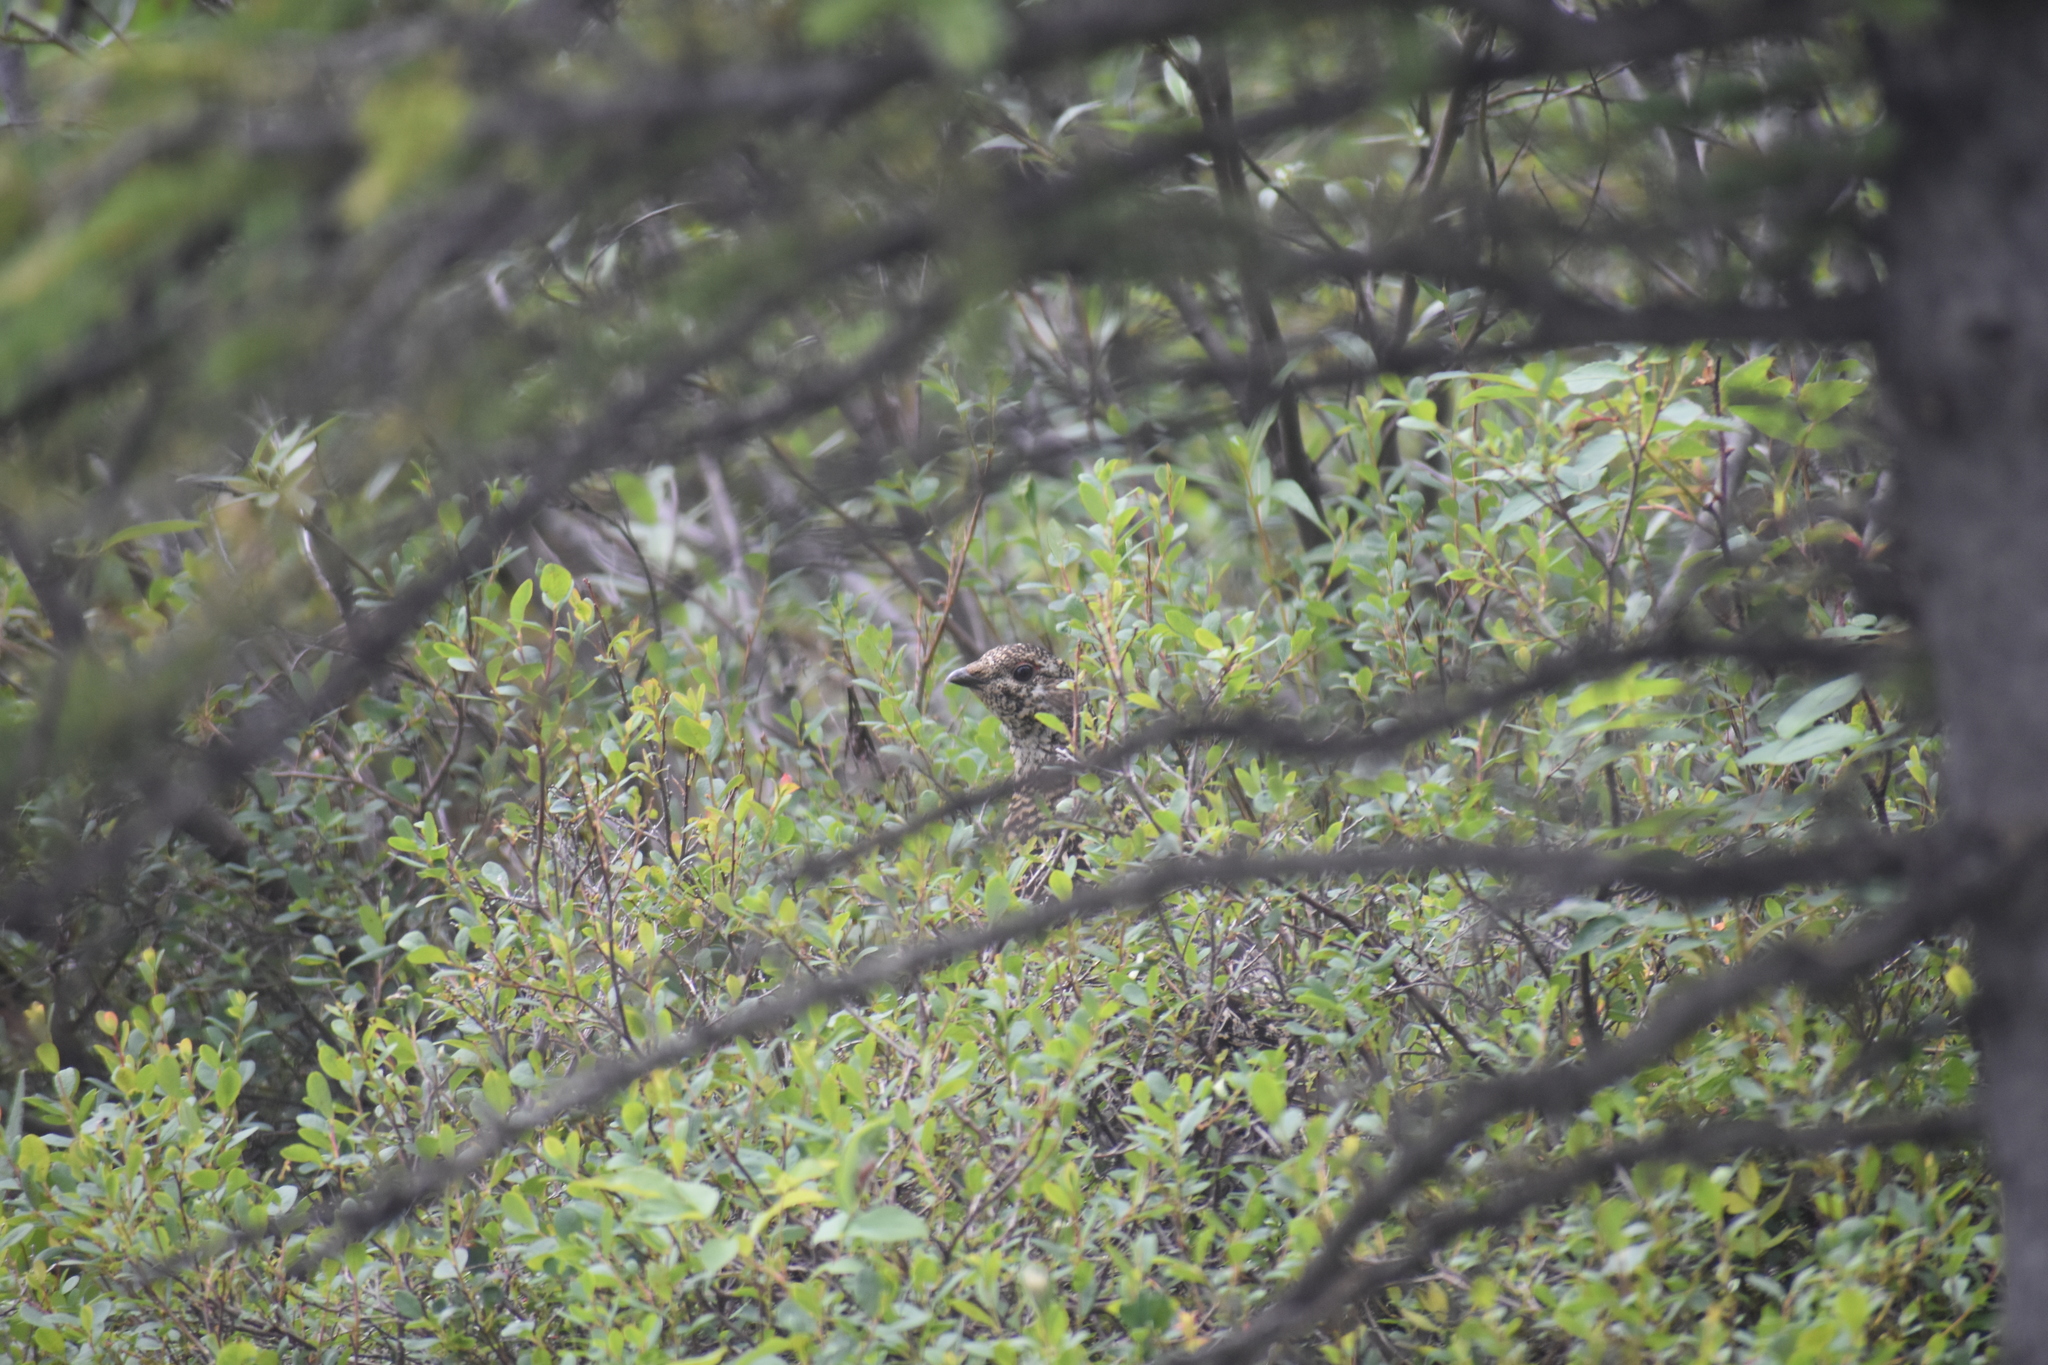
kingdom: Animalia
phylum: Chordata
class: Aves
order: Galliformes
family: Phasianidae
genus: Lagopus
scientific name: Lagopus lagopus
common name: Willow ptarmigan
